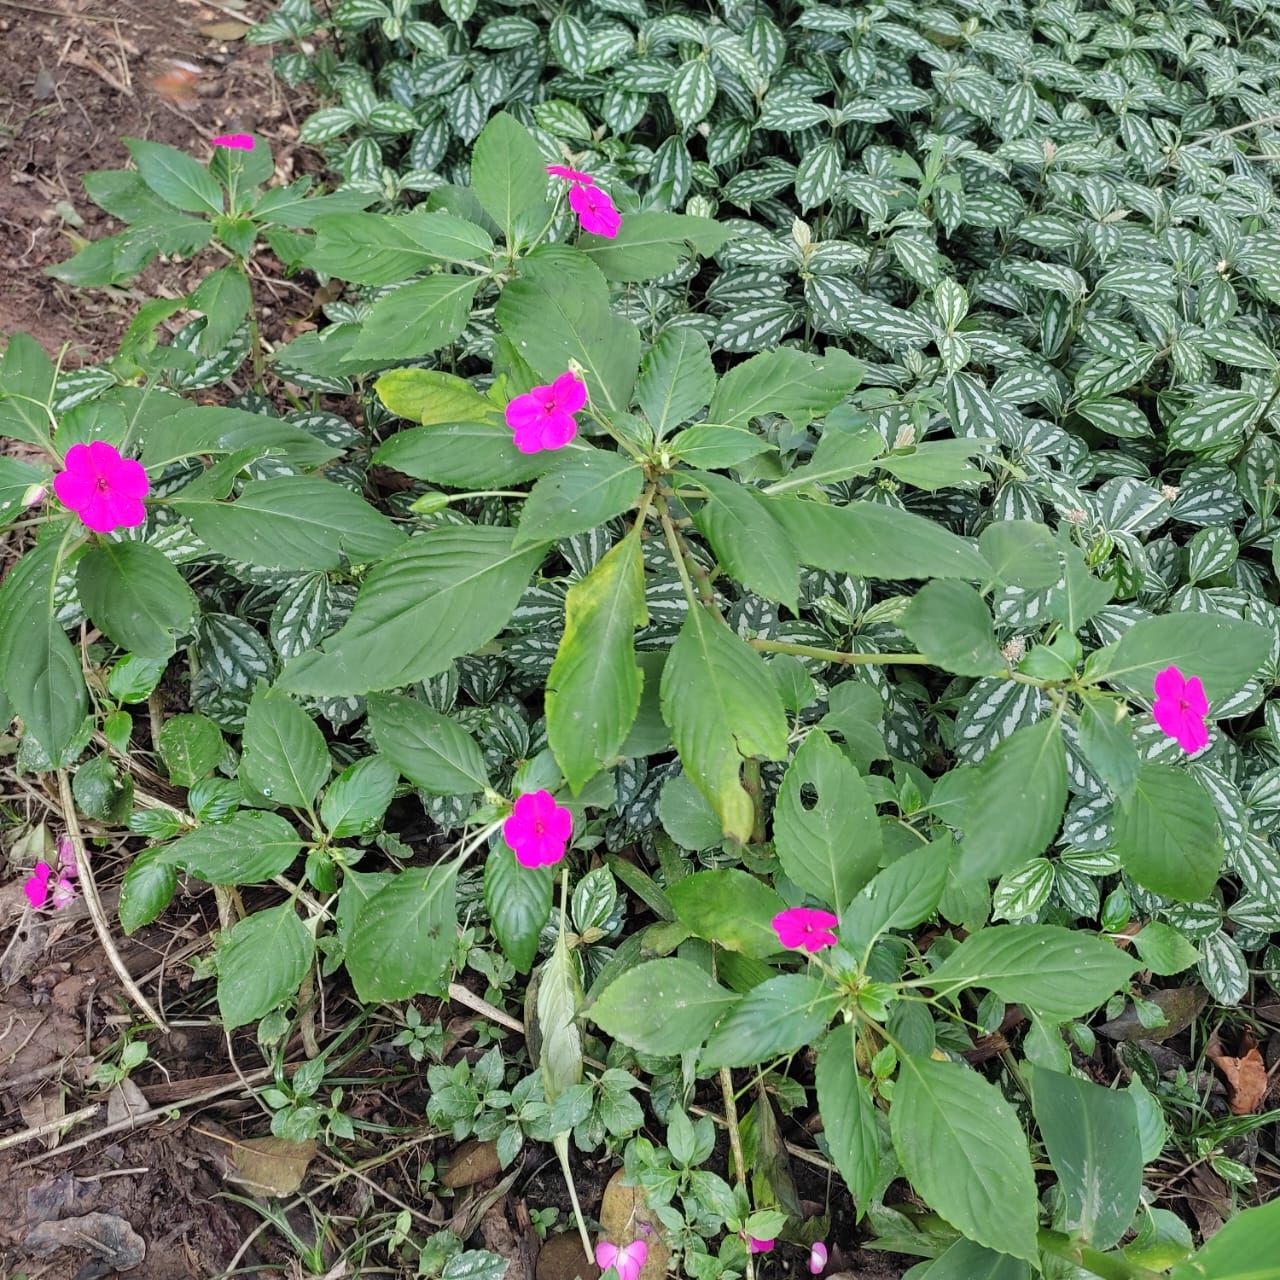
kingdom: Plantae
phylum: Tracheophyta
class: Magnoliopsida
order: Ericales
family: Balsaminaceae
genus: Impatiens
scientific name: Impatiens walleriana
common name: Buzzy lizzy
